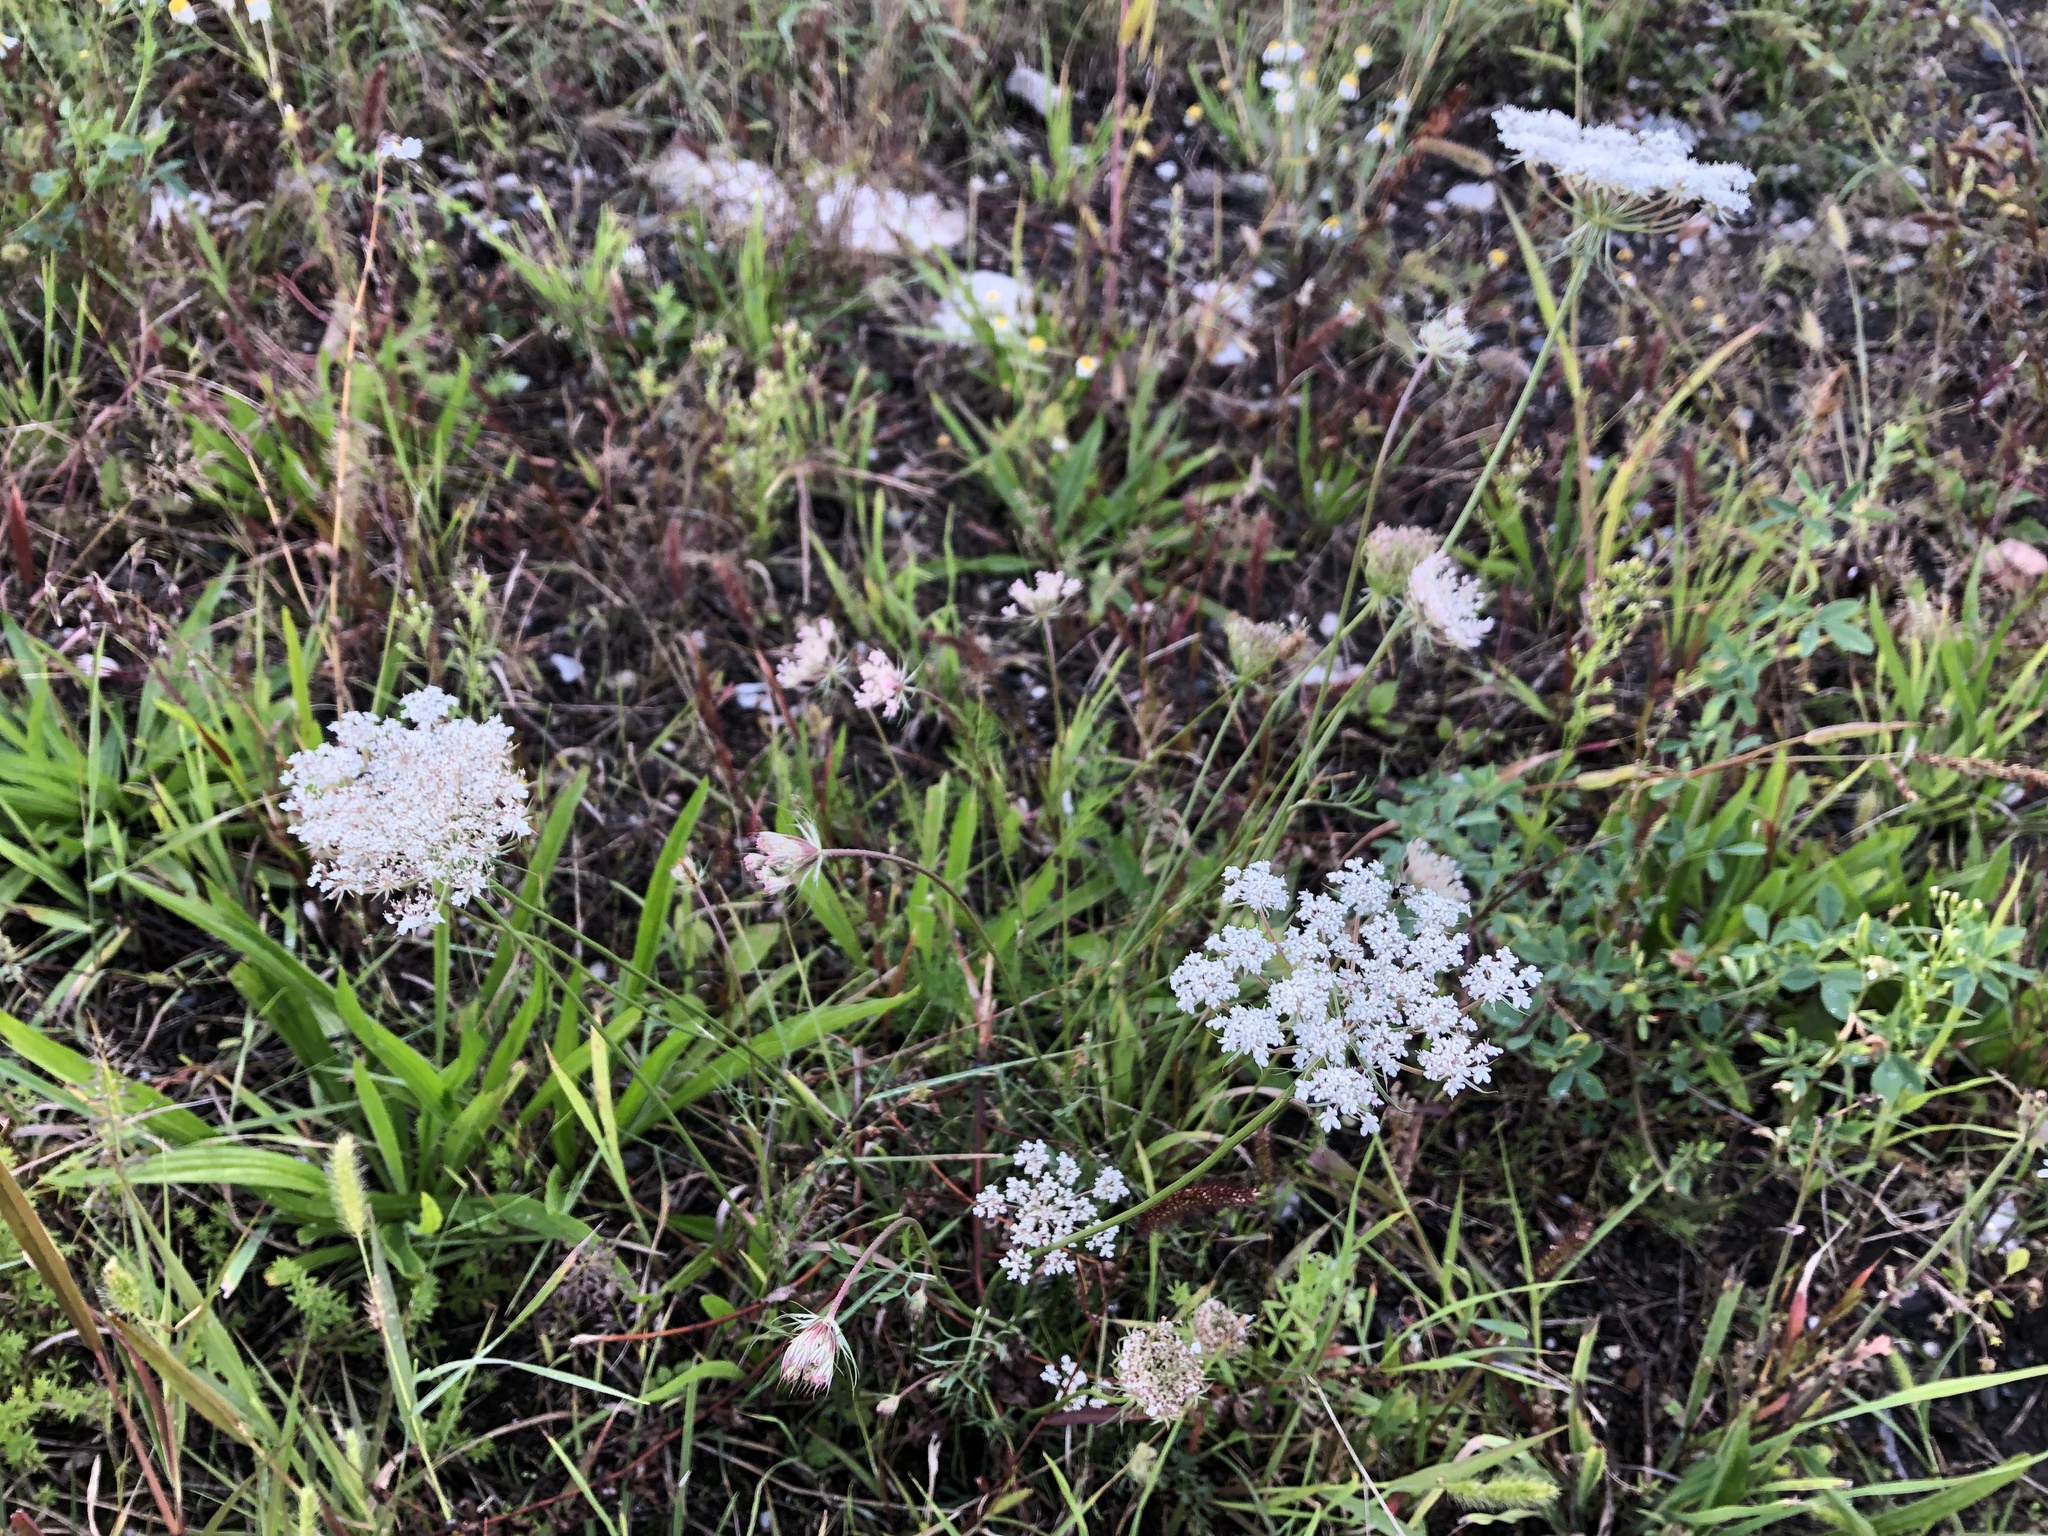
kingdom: Plantae
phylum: Tracheophyta
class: Magnoliopsida
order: Apiales
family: Apiaceae
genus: Daucus
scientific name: Daucus carota
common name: Wild carrot
